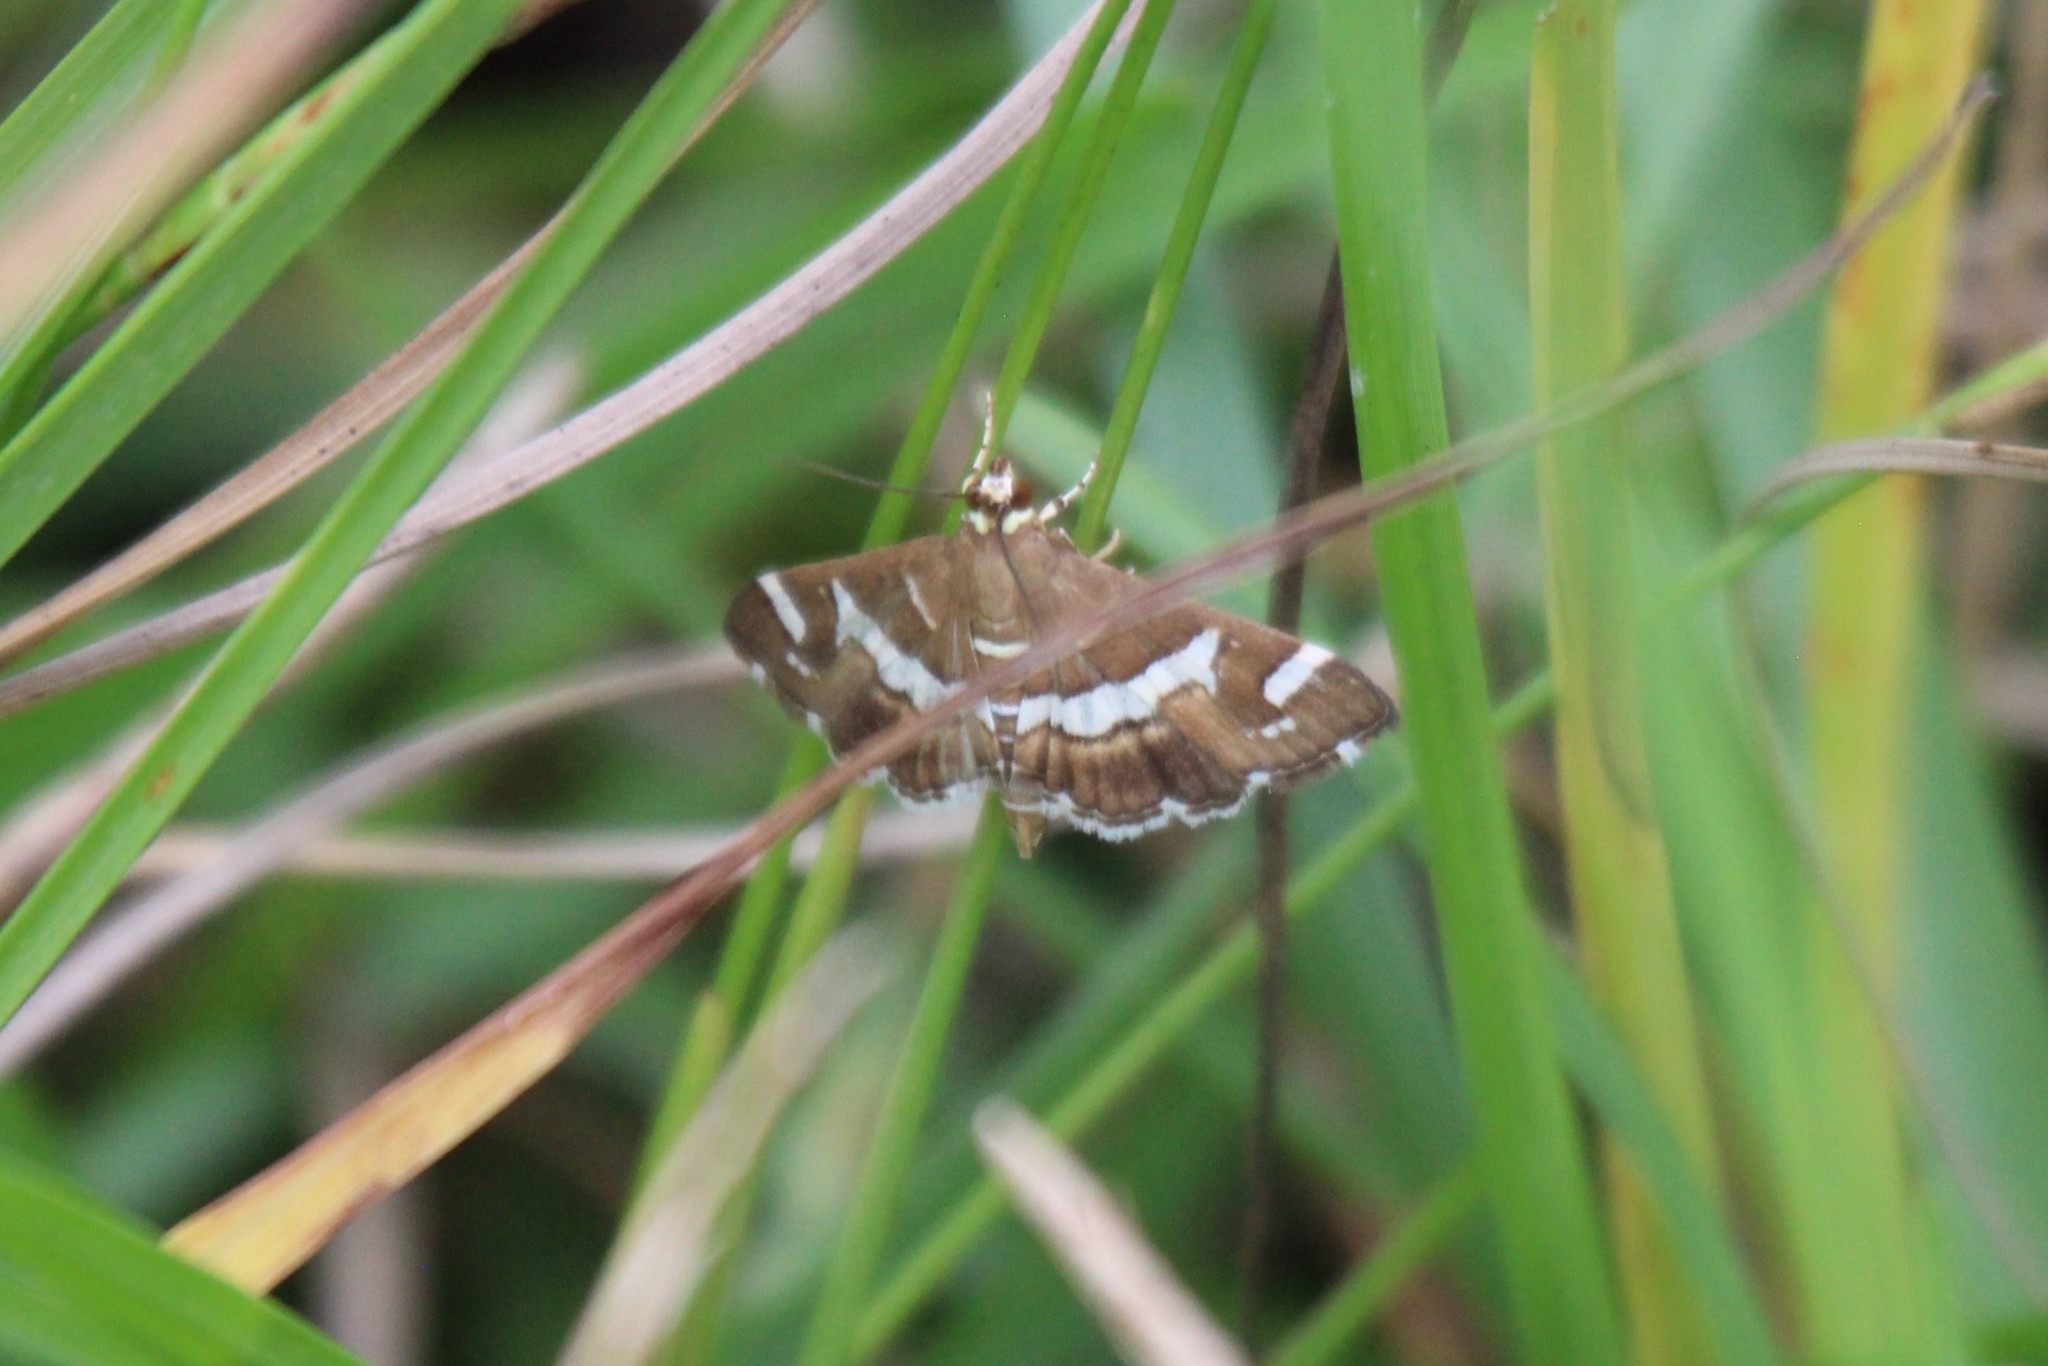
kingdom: Animalia
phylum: Arthropoda
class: Insecta
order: Lepidoptera
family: Crambidae
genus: Spoladea
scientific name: Spoladea recurvalis
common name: Beet webworm moth
